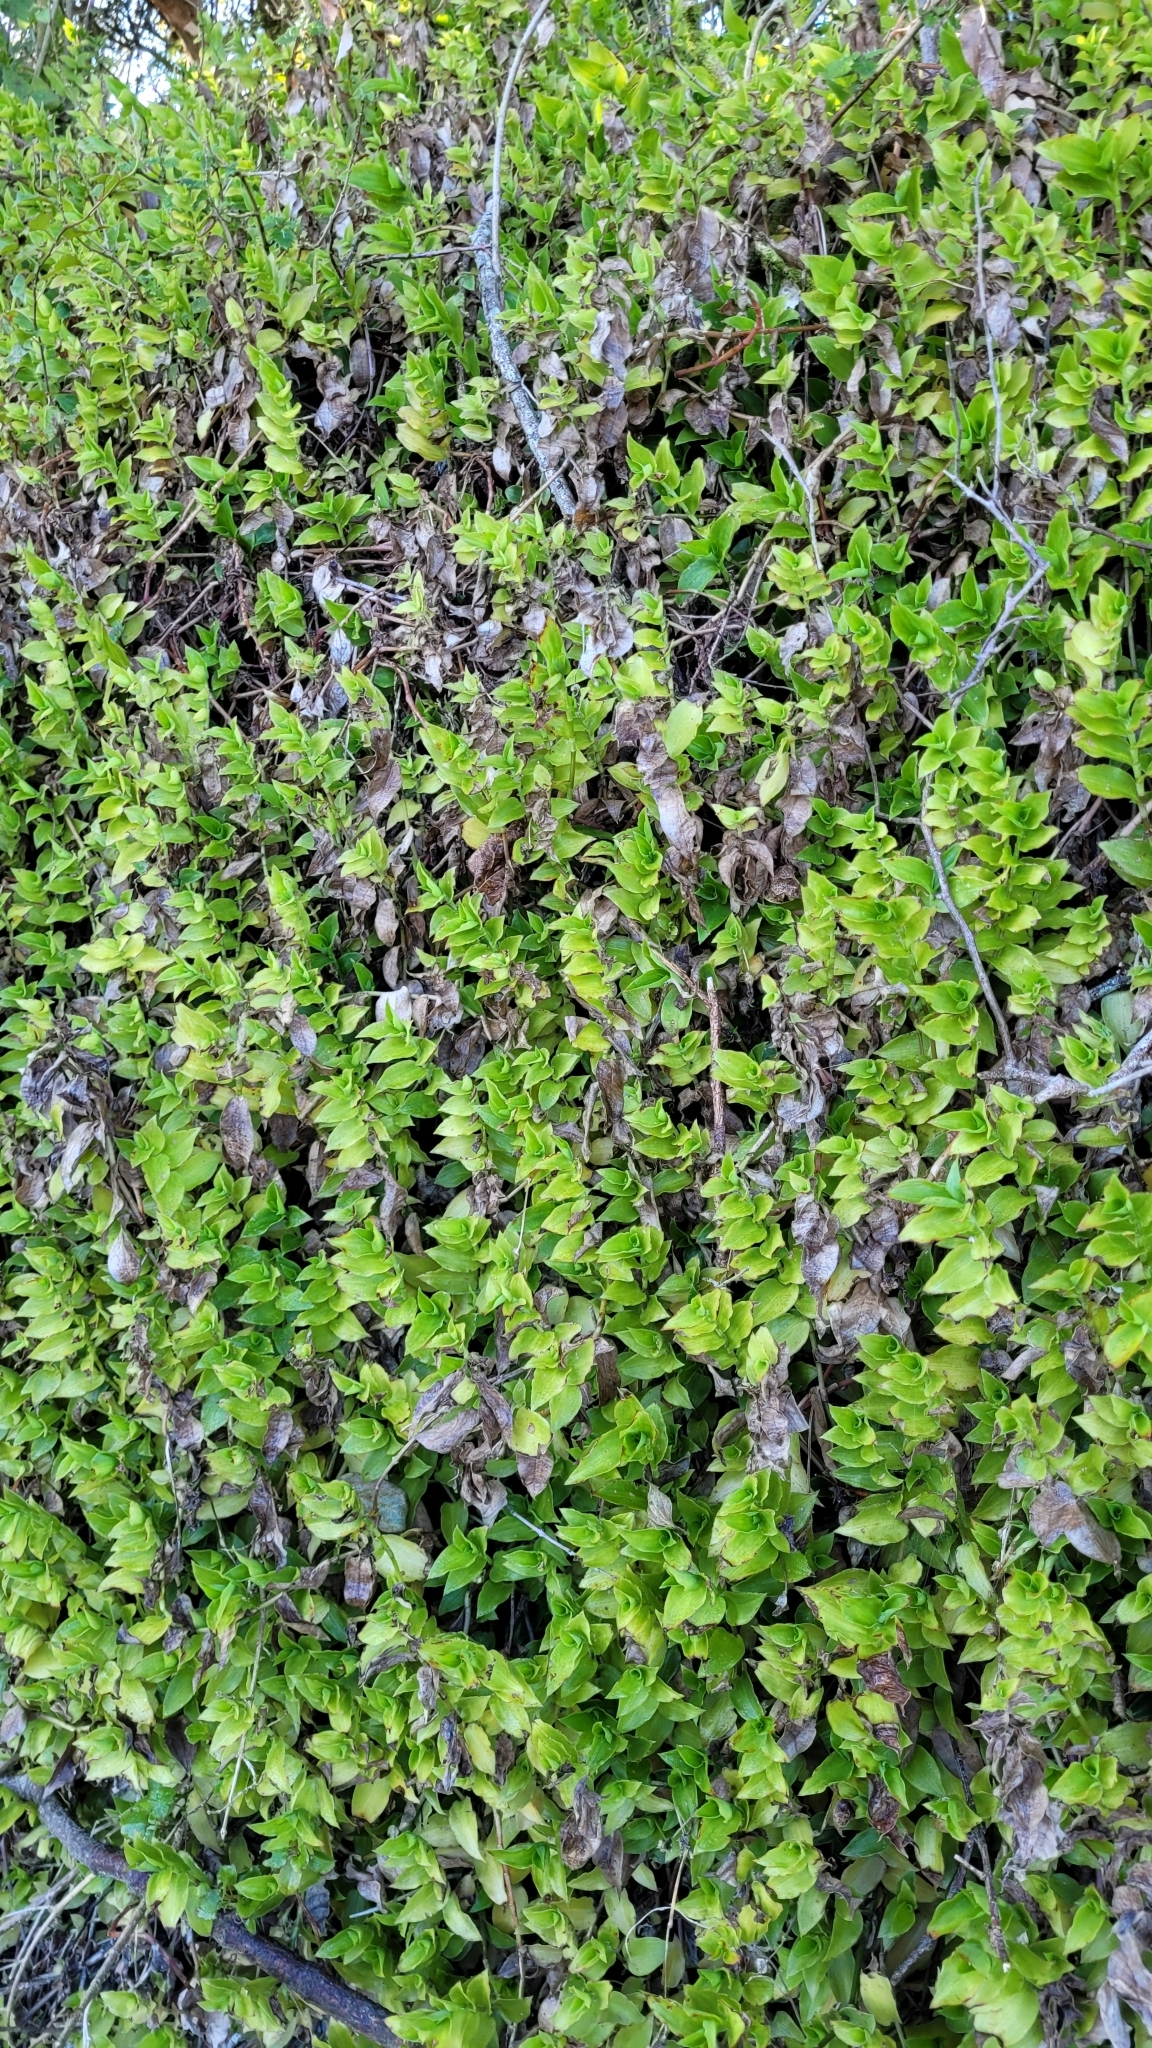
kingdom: Plantae
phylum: Tracheophyta
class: Liliopsida
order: Commelinales
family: Commelinaceae
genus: Tradescantia
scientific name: Tradescantia fluminensis
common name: Wandering-jew
